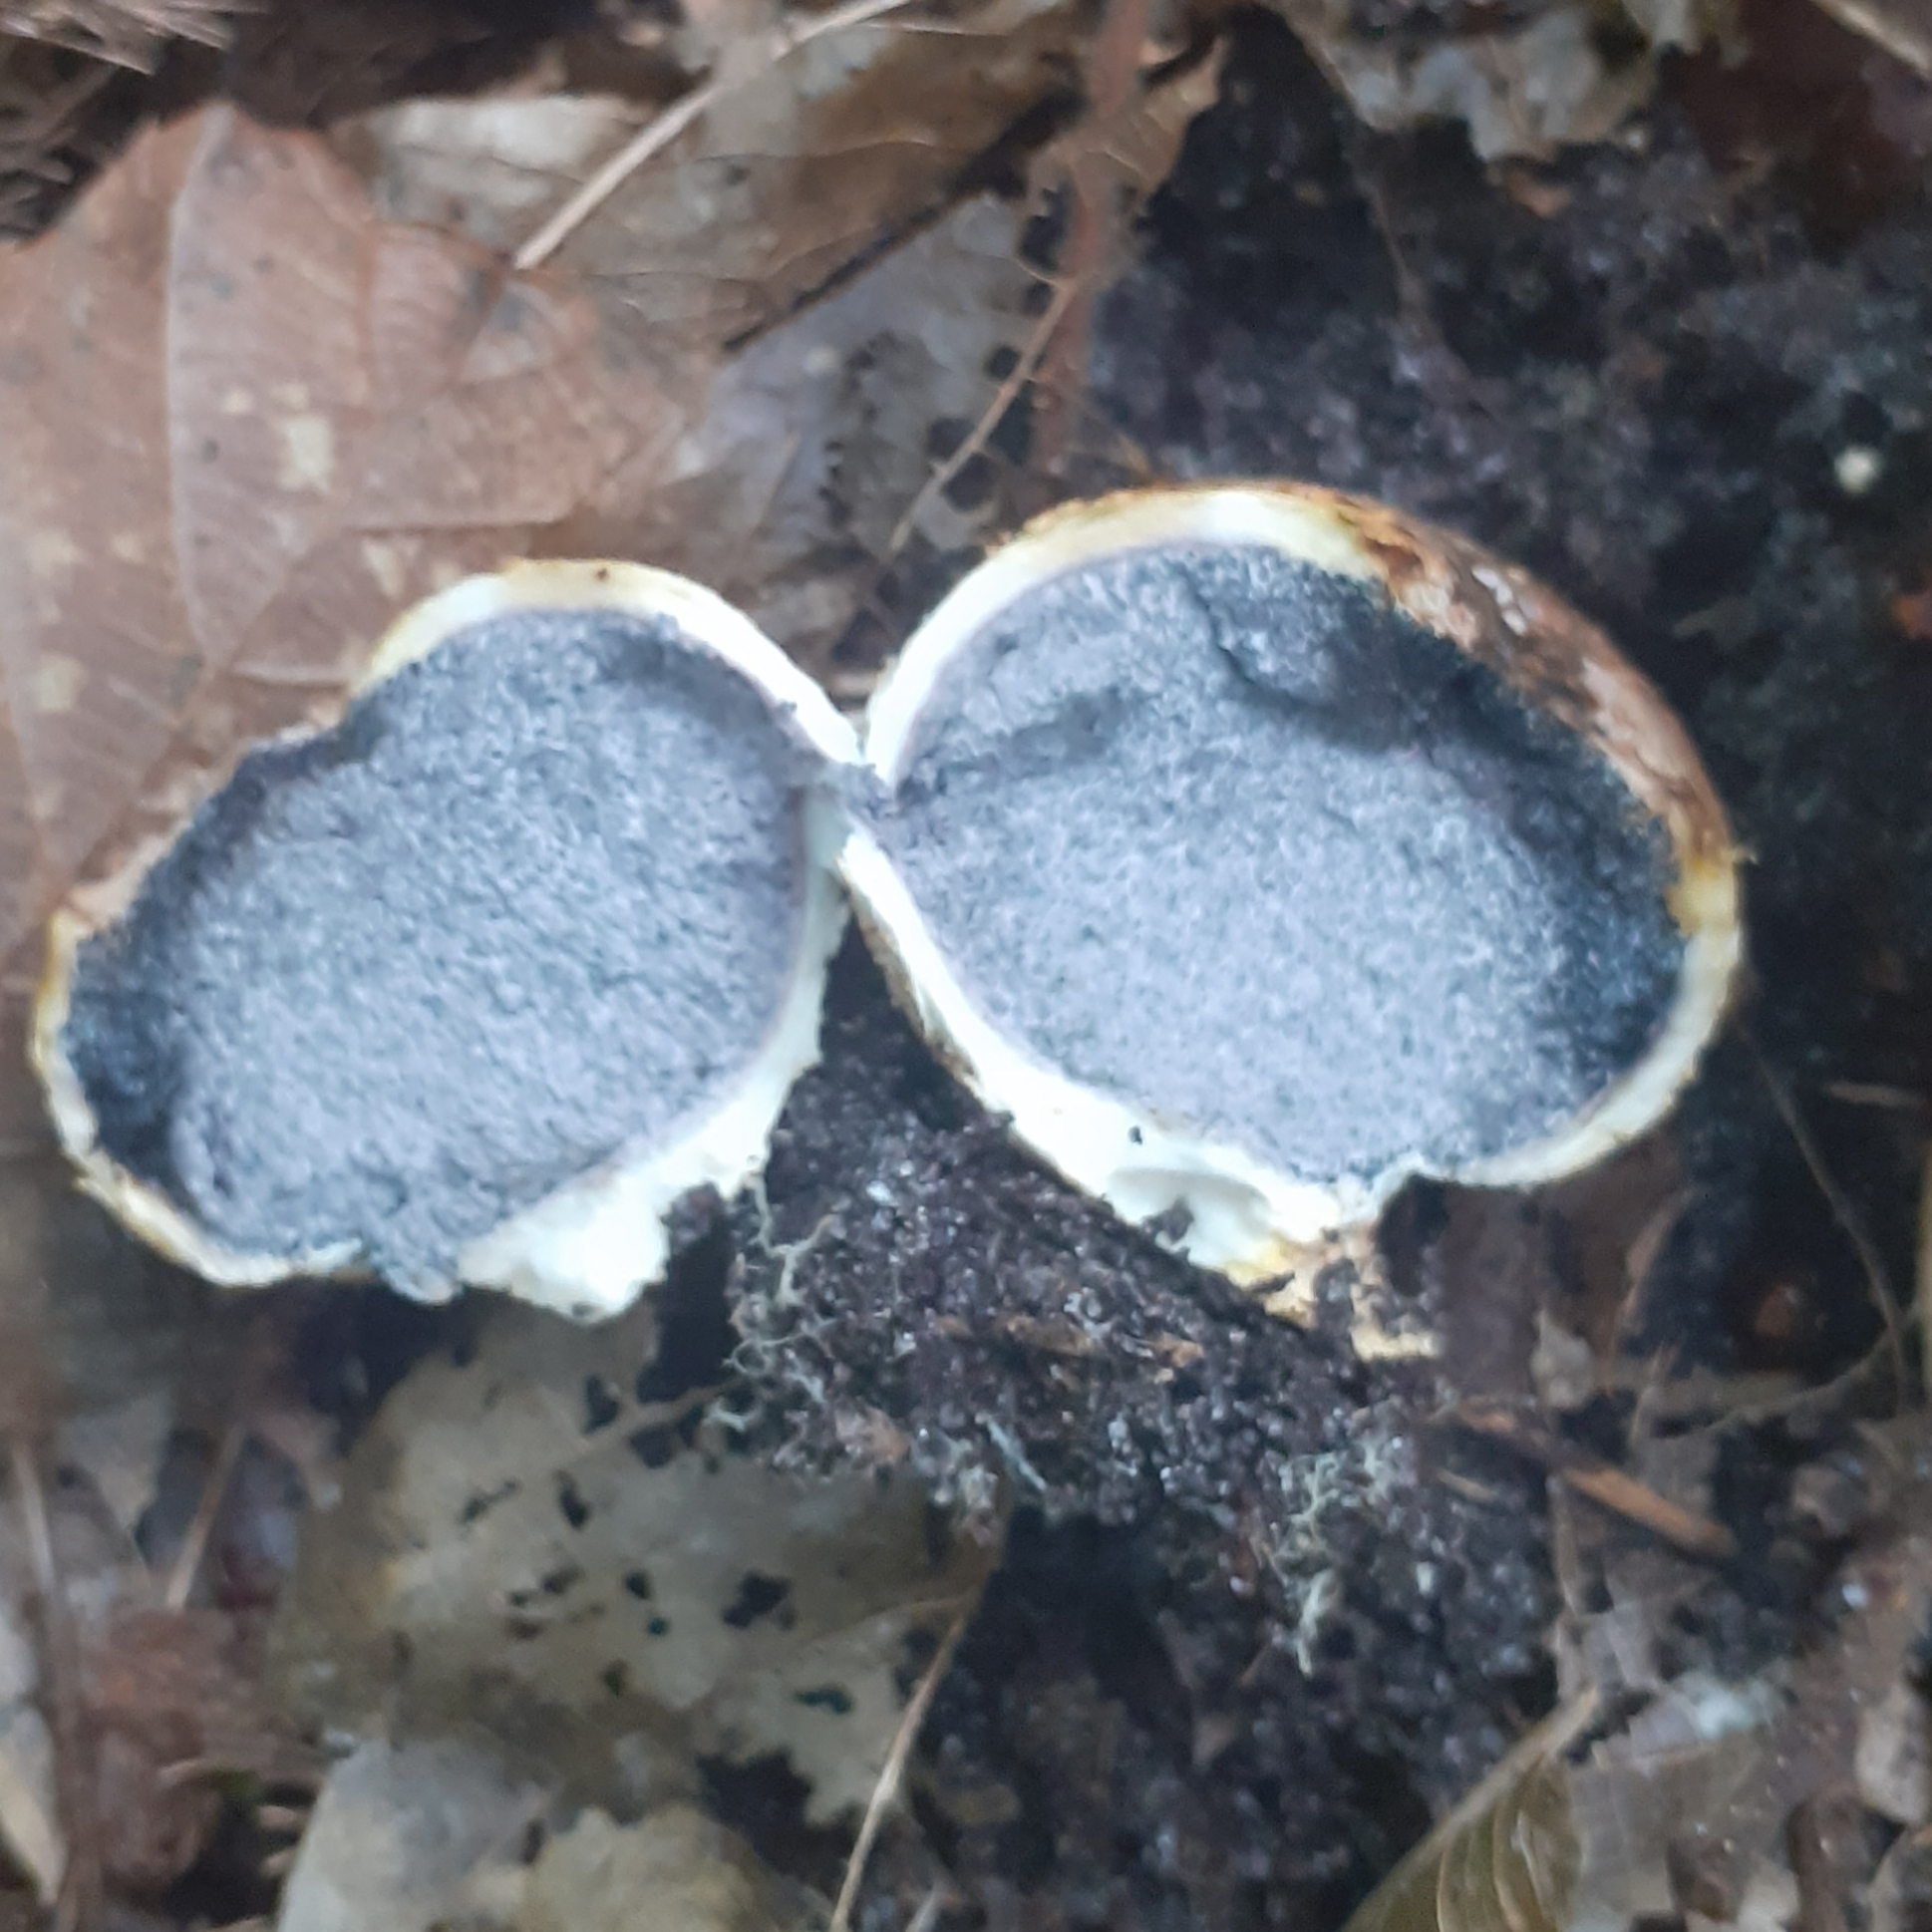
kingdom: Fungi
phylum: Basidiomycota
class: Agaricomycetes
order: Boletales
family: Sclerodermataceae
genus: Scleroderma
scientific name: Scleroderma citrinum
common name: Common earthball
